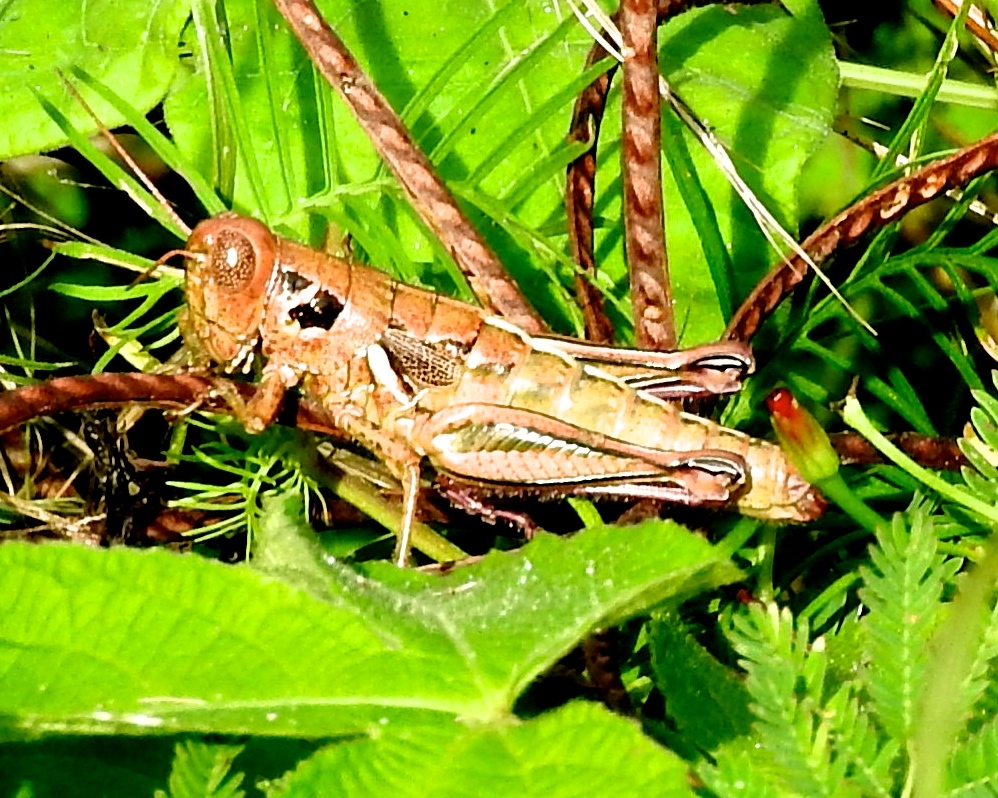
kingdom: Animalia
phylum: Arthropoda
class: Insecta
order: Orthoptera
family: Acrididae
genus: Barytettix
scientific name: Barytettix
